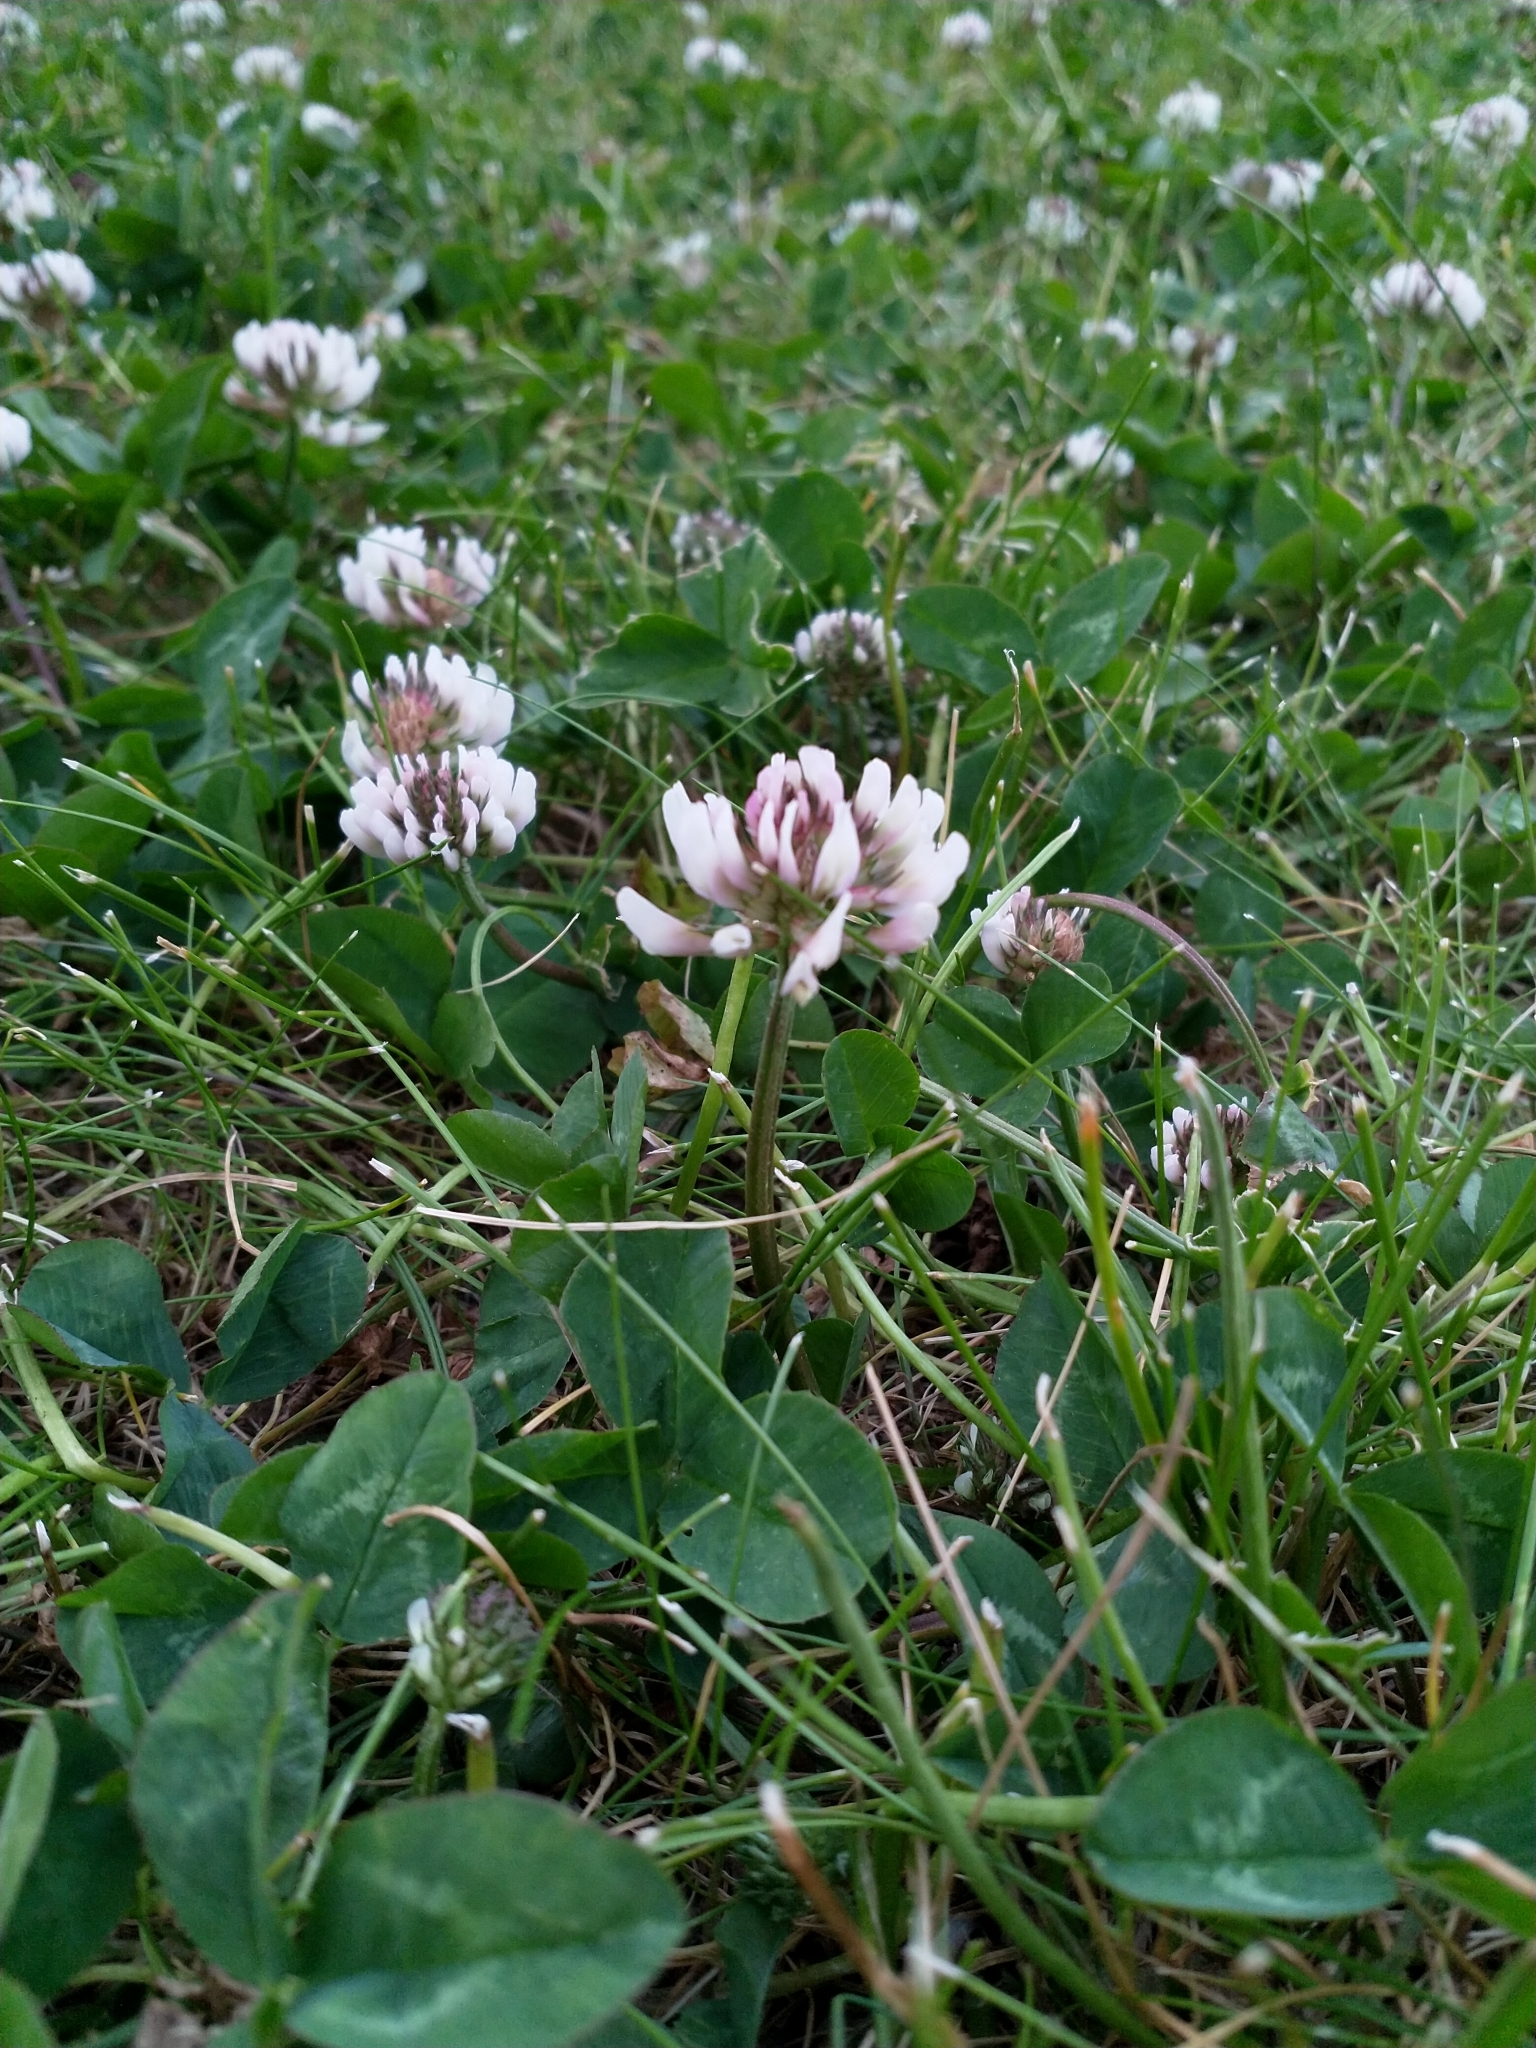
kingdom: Plantae
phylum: Tracheophyta
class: Magnoliopsida
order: Fabales
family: Fabaceae
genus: Trifolium
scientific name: Trifolium repens
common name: White clover
